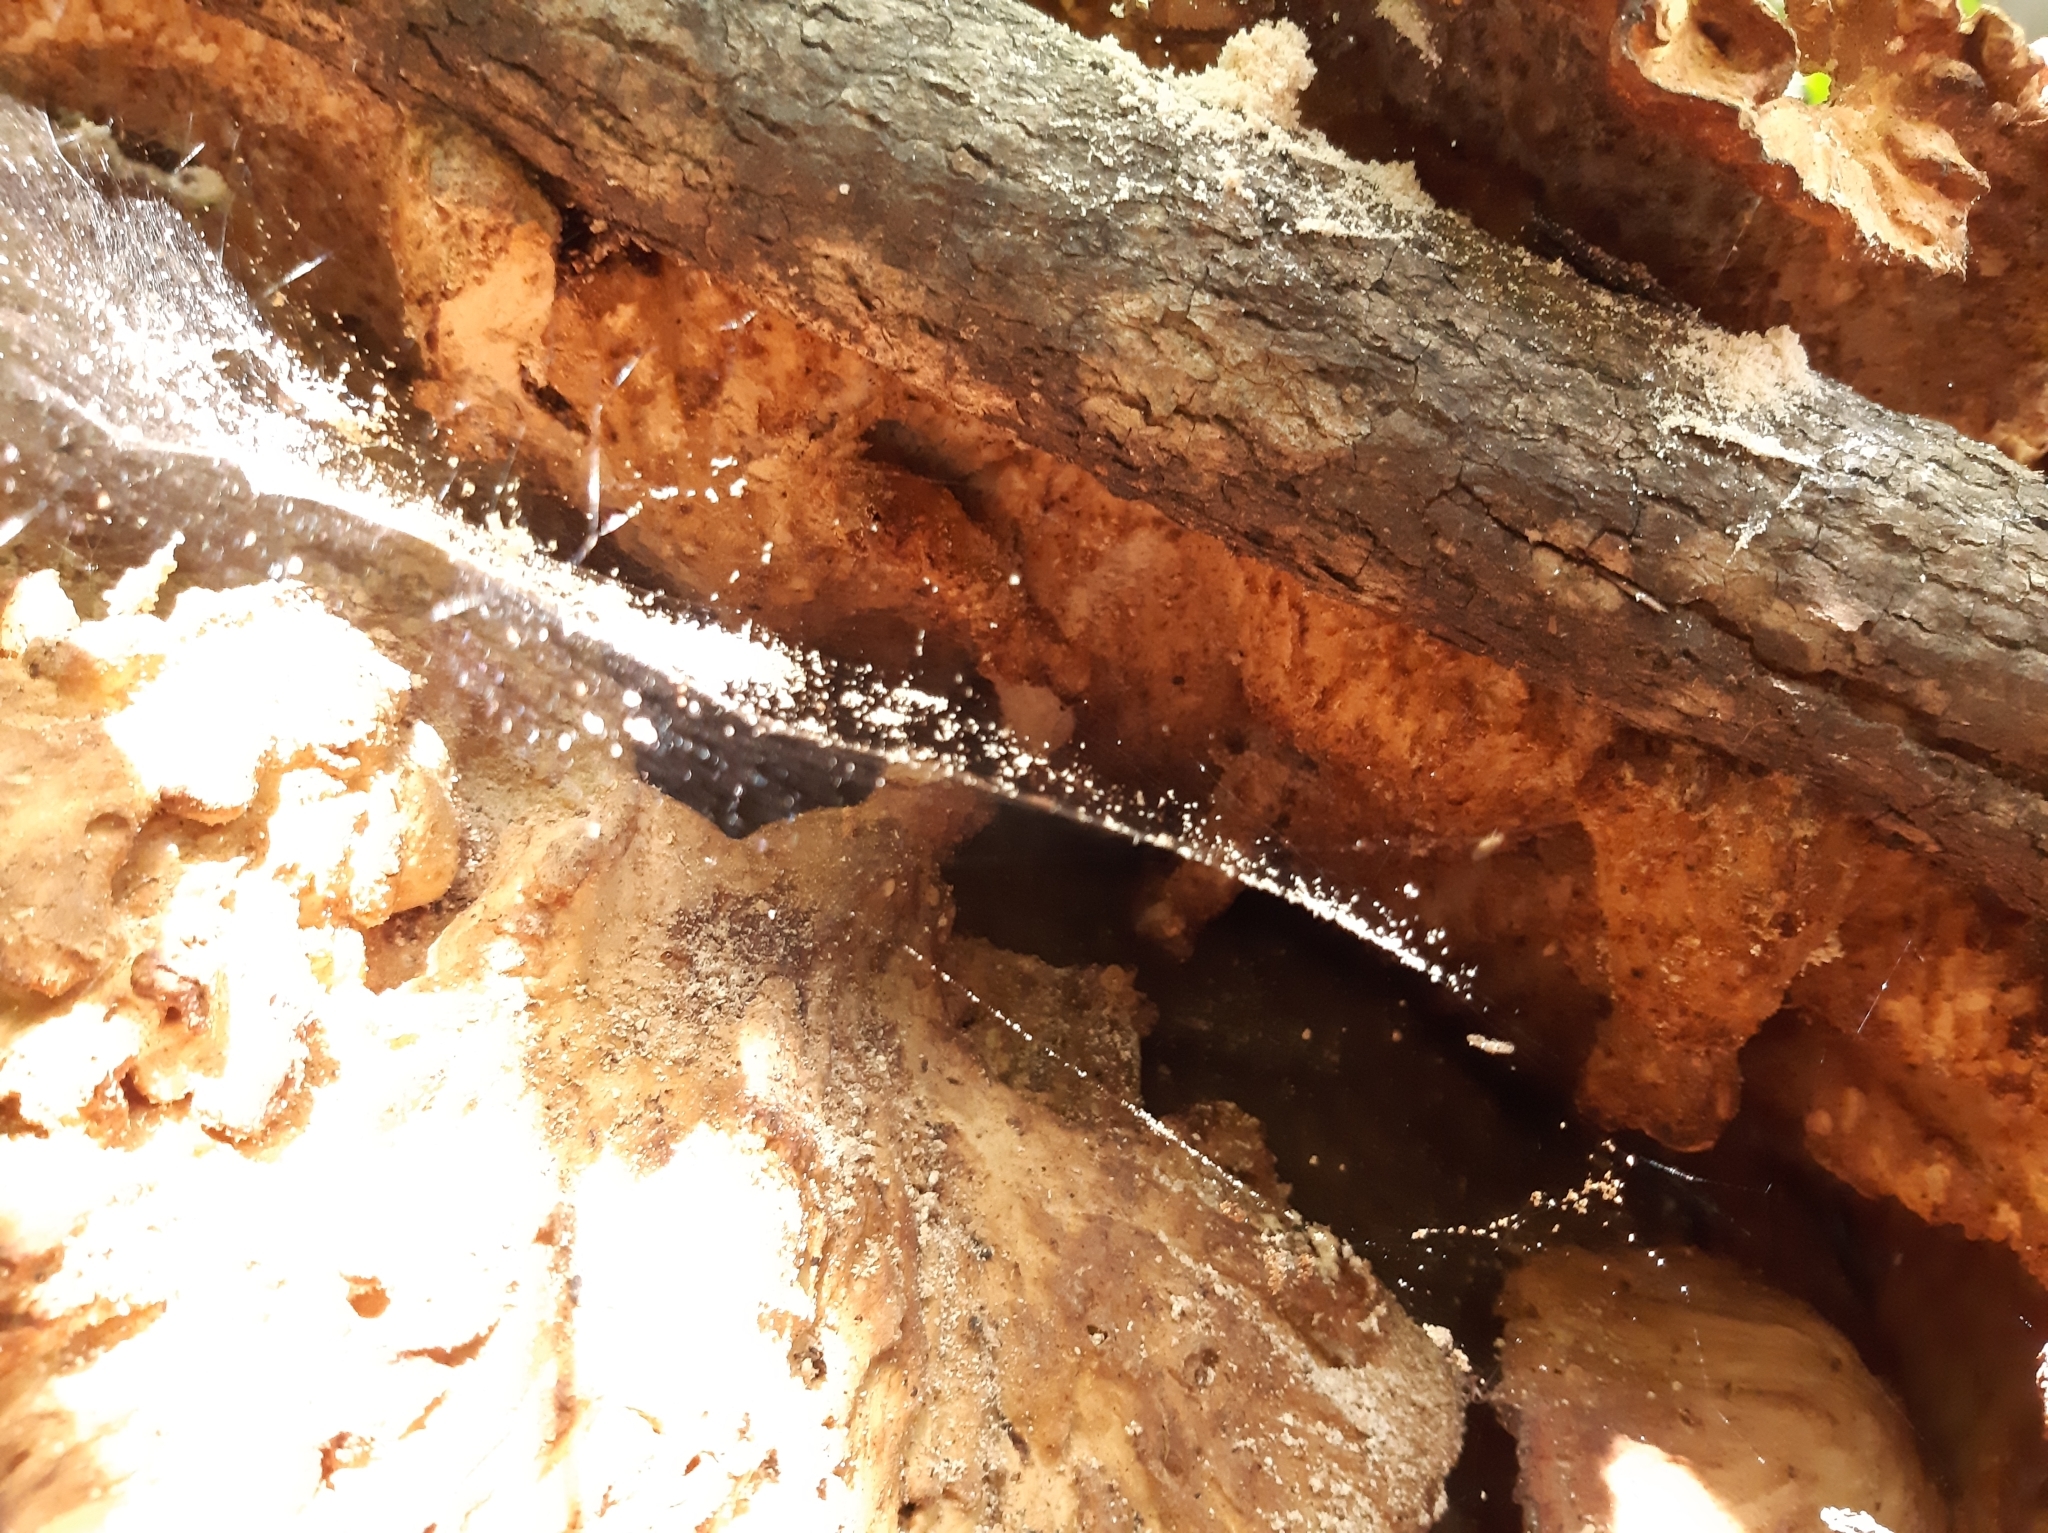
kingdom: Fungi
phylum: Basidiomycota
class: Agaricomycetes
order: Polyporales
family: Laetiporaceae
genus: Laetiporus
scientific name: Laetiporus sulphureus
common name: Chicken of the woods
